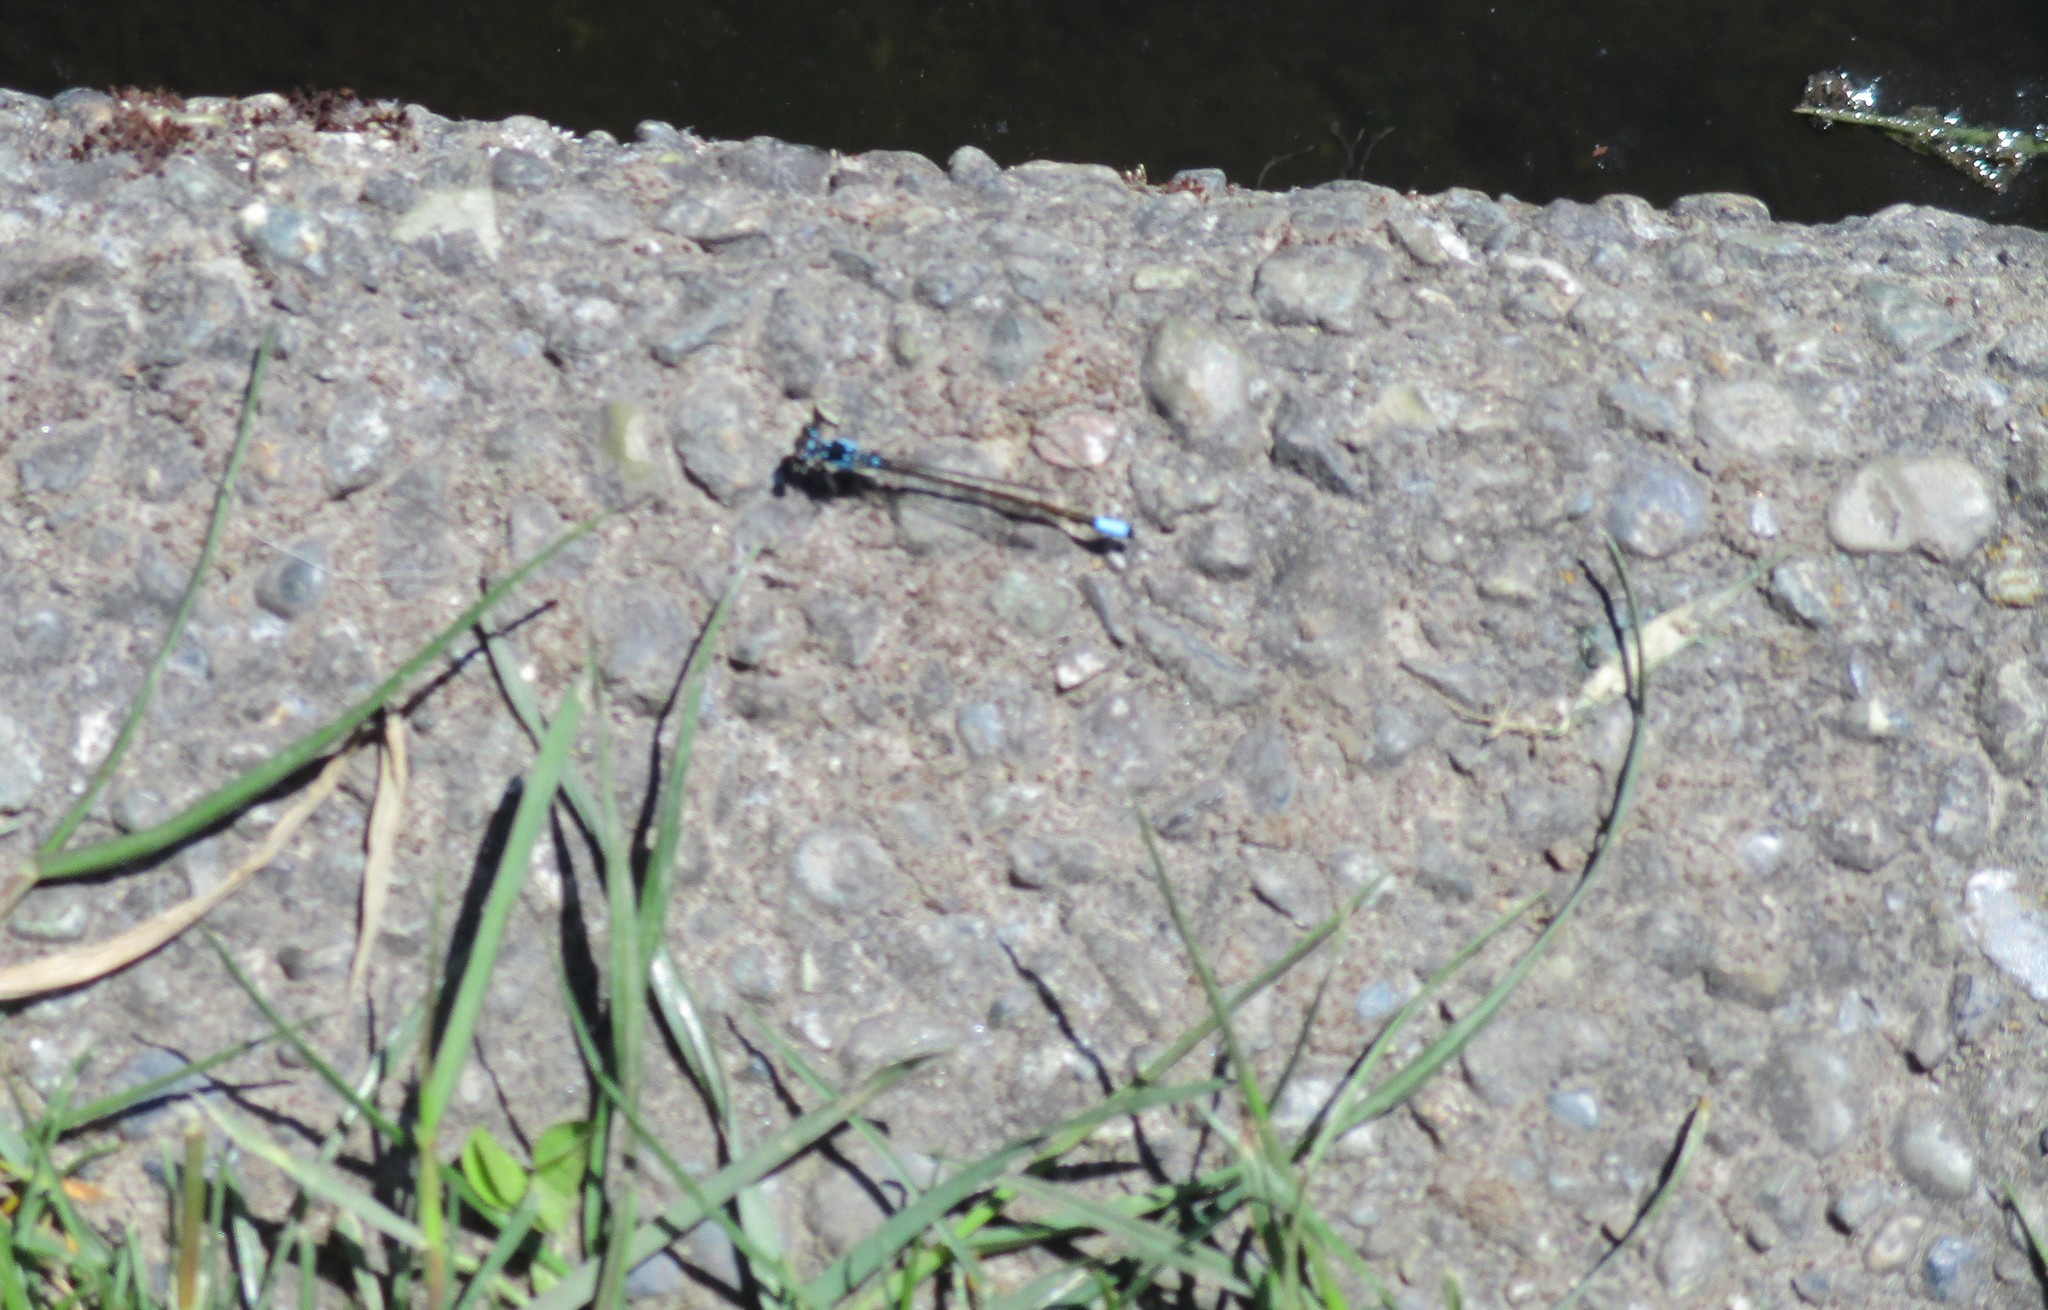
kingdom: Animalia
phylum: Arthropoda
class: Insecta
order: Odonata
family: Coenagrionidae
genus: Ischnura
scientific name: Ischnura cervula
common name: Pacific forktail
